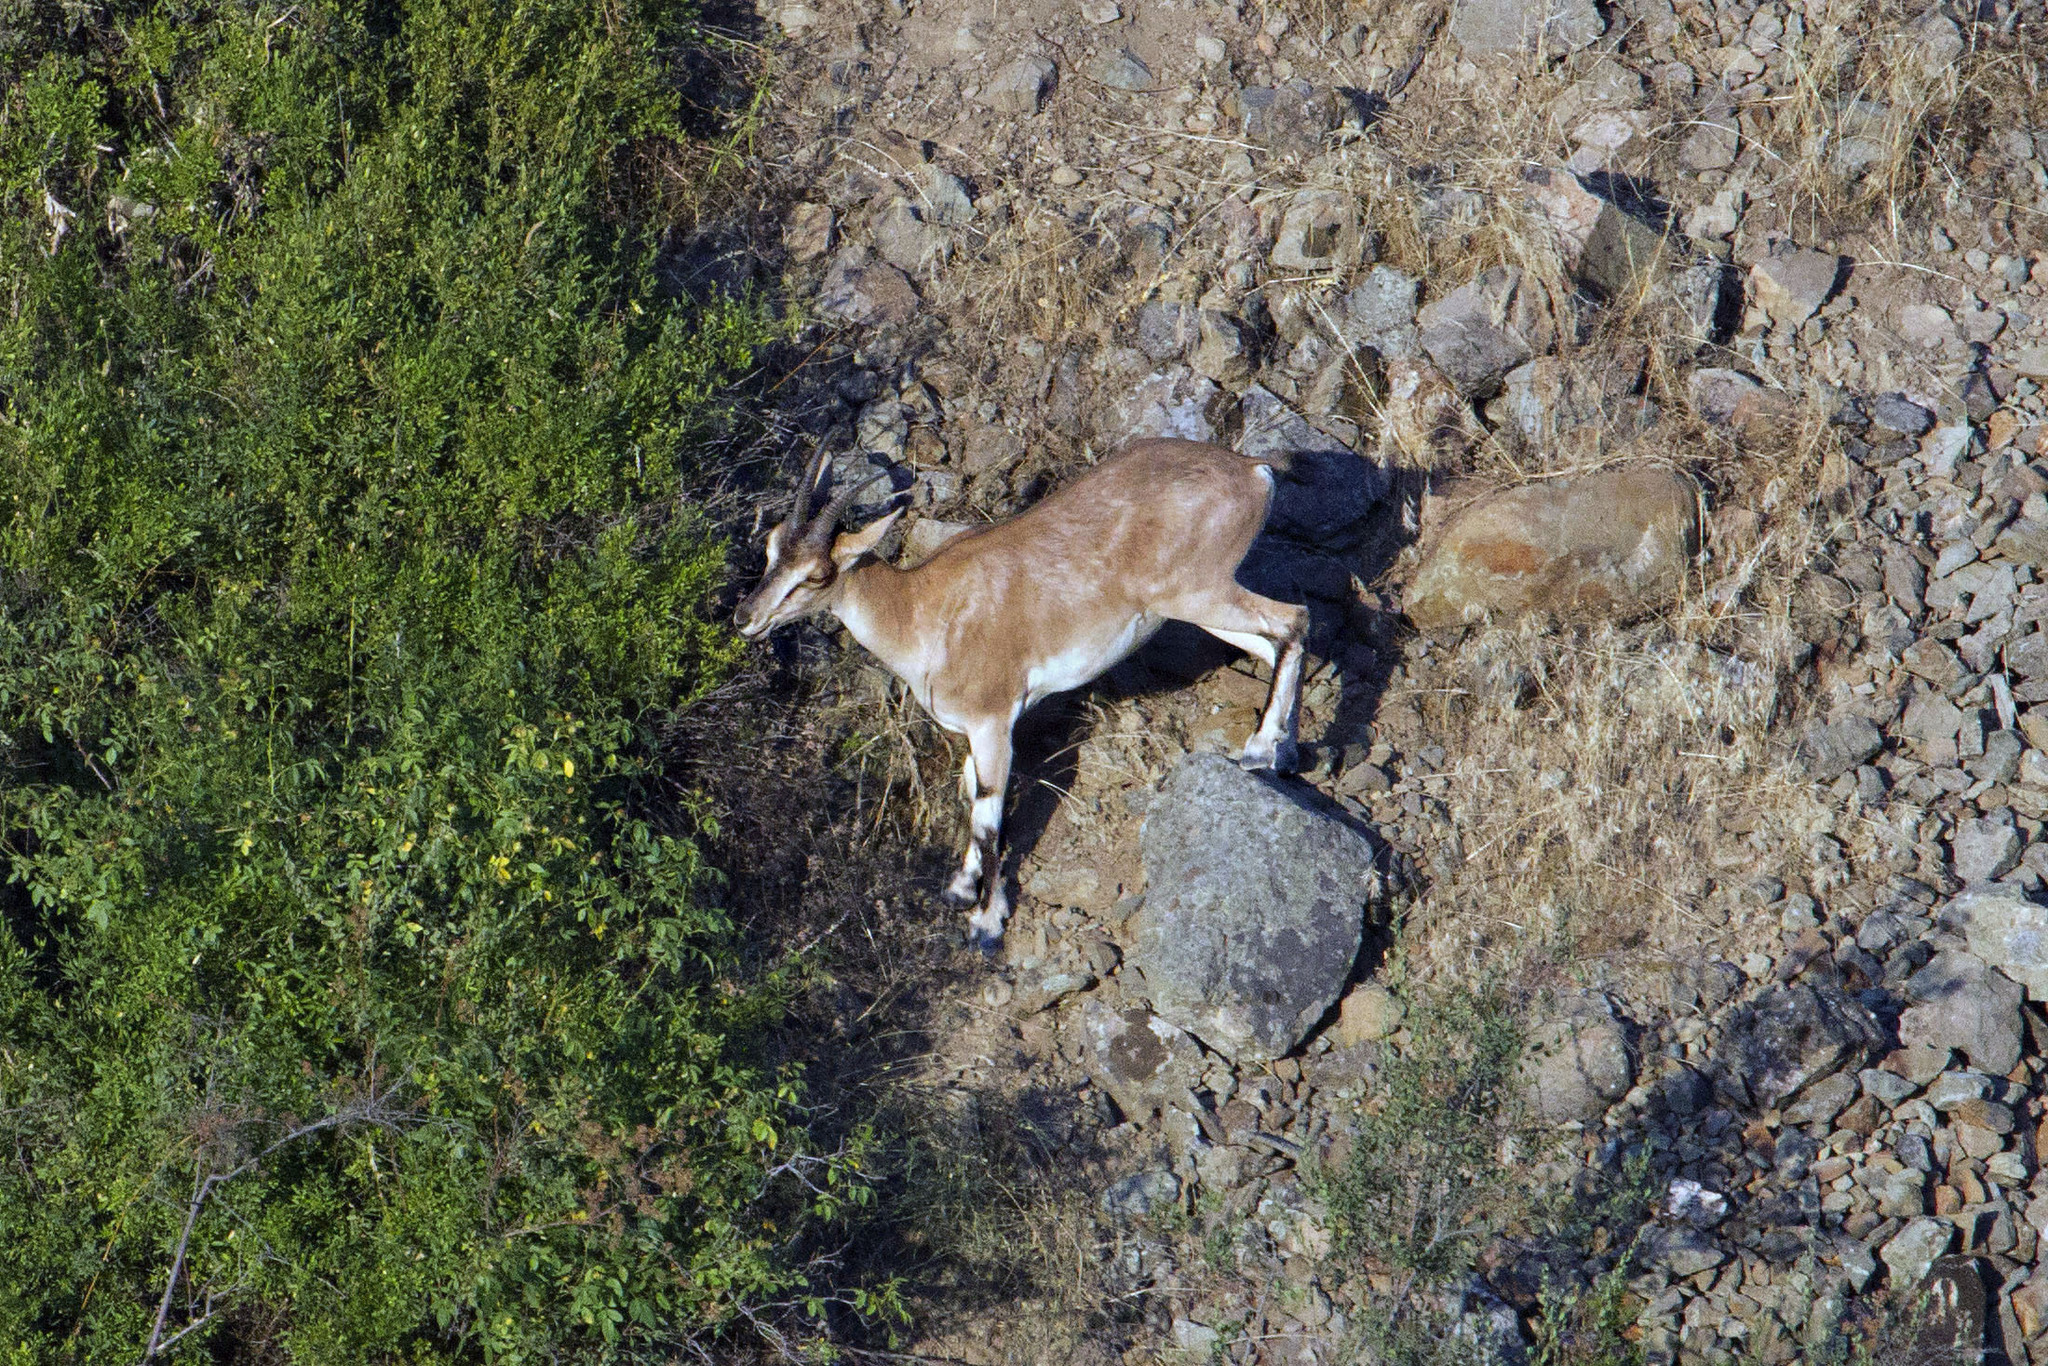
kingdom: Animalia
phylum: Chordata
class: Mammalia
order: Artiodactyla
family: Bovidae
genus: Capra
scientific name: Capra hircus
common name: Domestic goat
